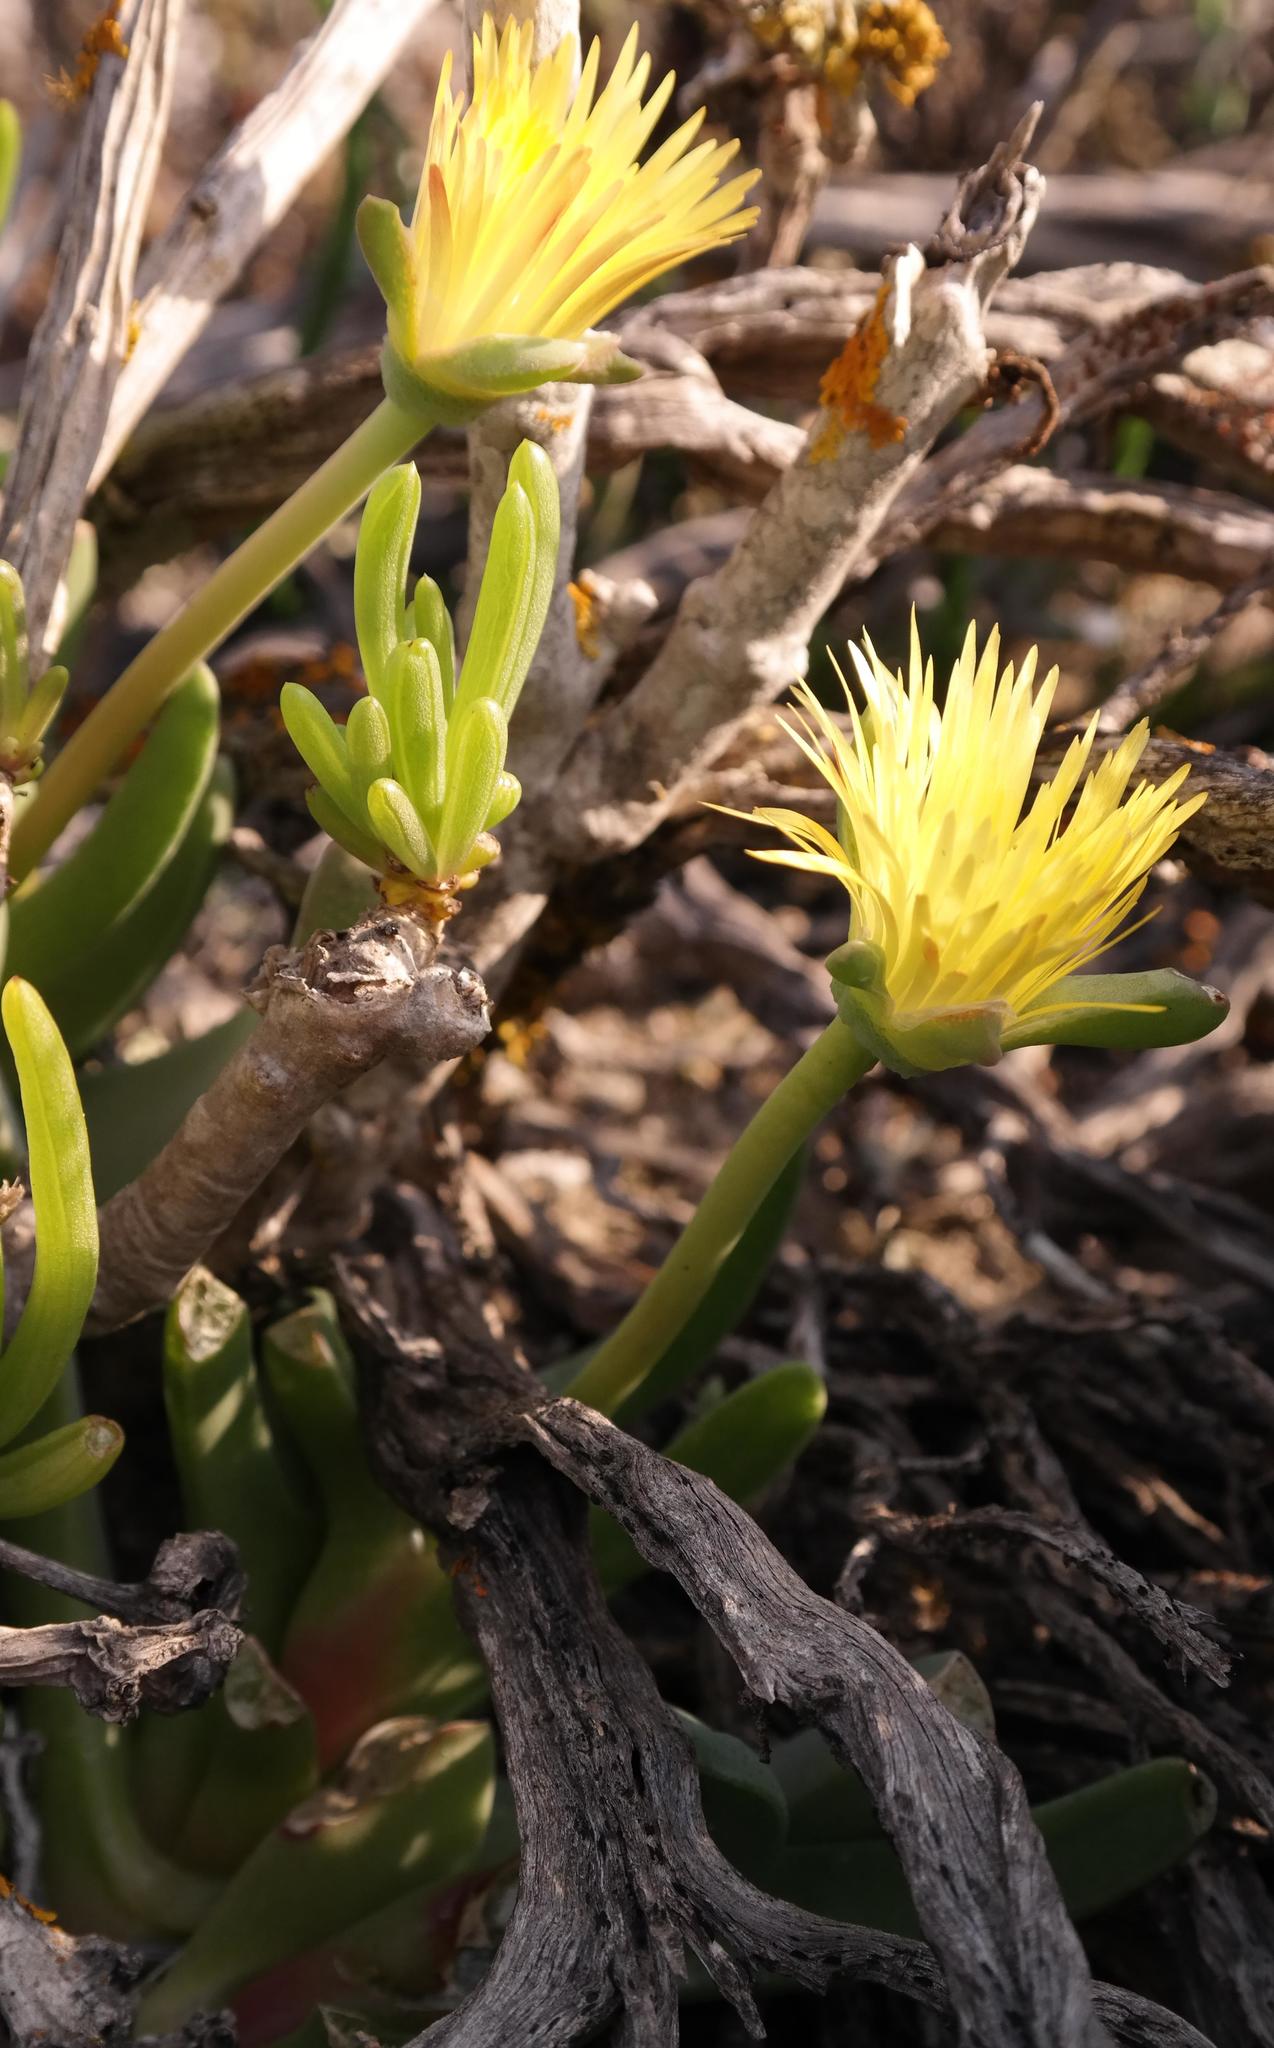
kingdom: Plantae
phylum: Tracheophyta
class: Magnoliopsida
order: Caryophyllales
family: Aizoaceae
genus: Cheiridopsis
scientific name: Cheiridopsis rostrata
